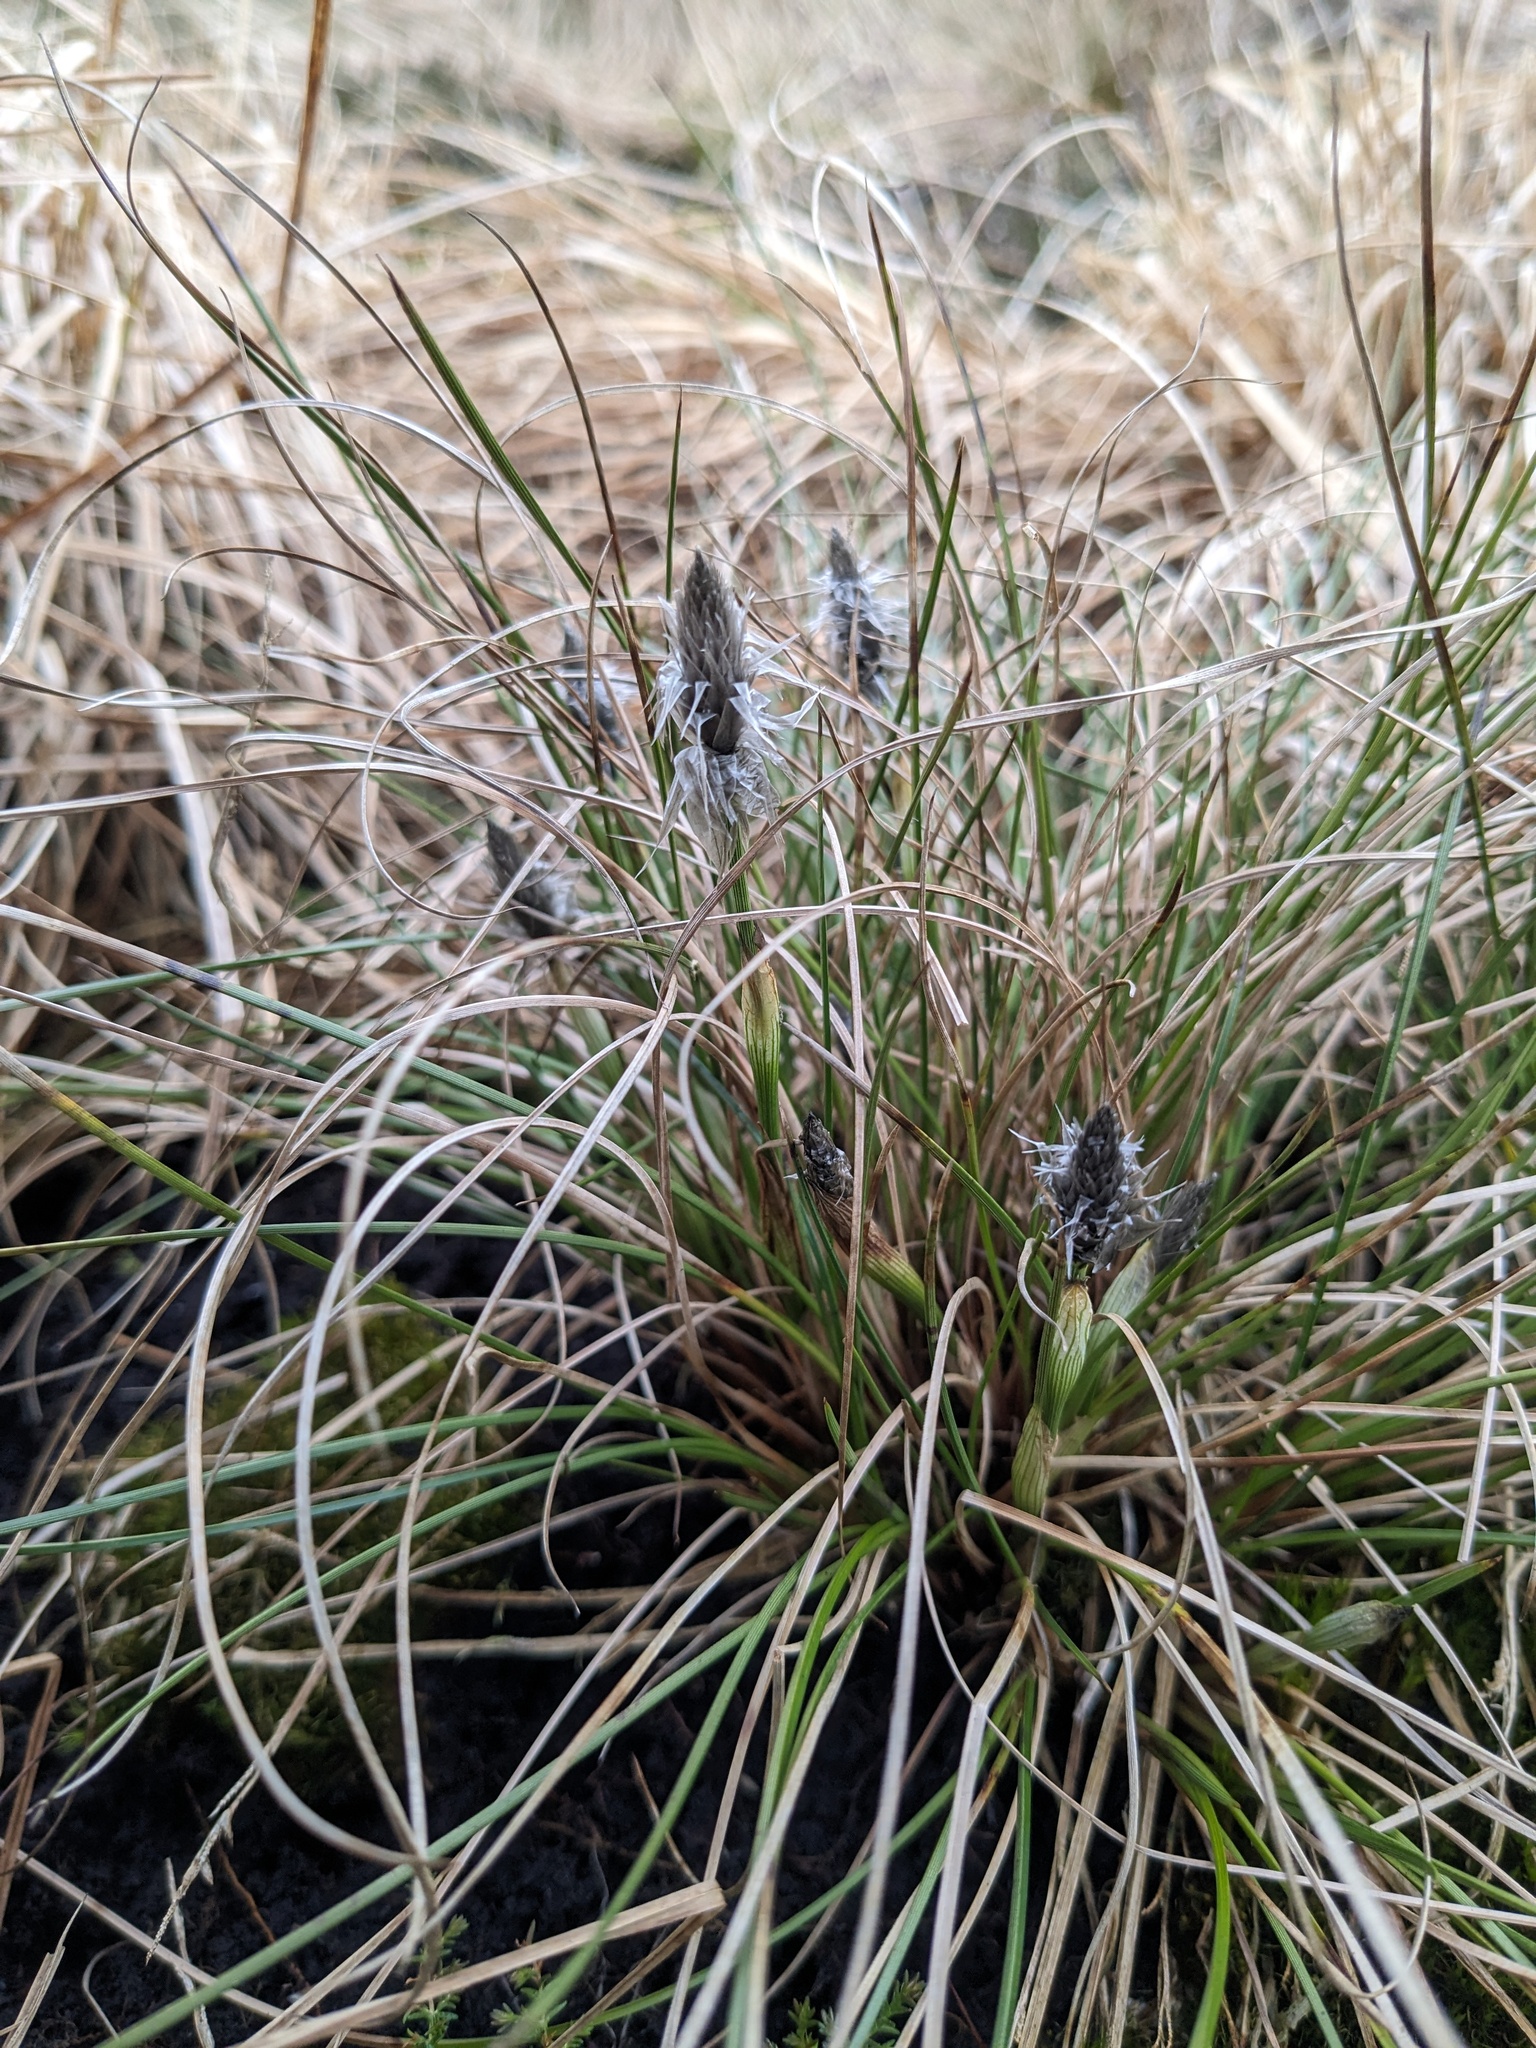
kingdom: Plantae
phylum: Tracheophyta
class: Liliopsida
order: Poales
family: Cyperaceae
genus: Eriophorum
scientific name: Eriophorum vaginatum
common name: Hare's-tail cottongrass
